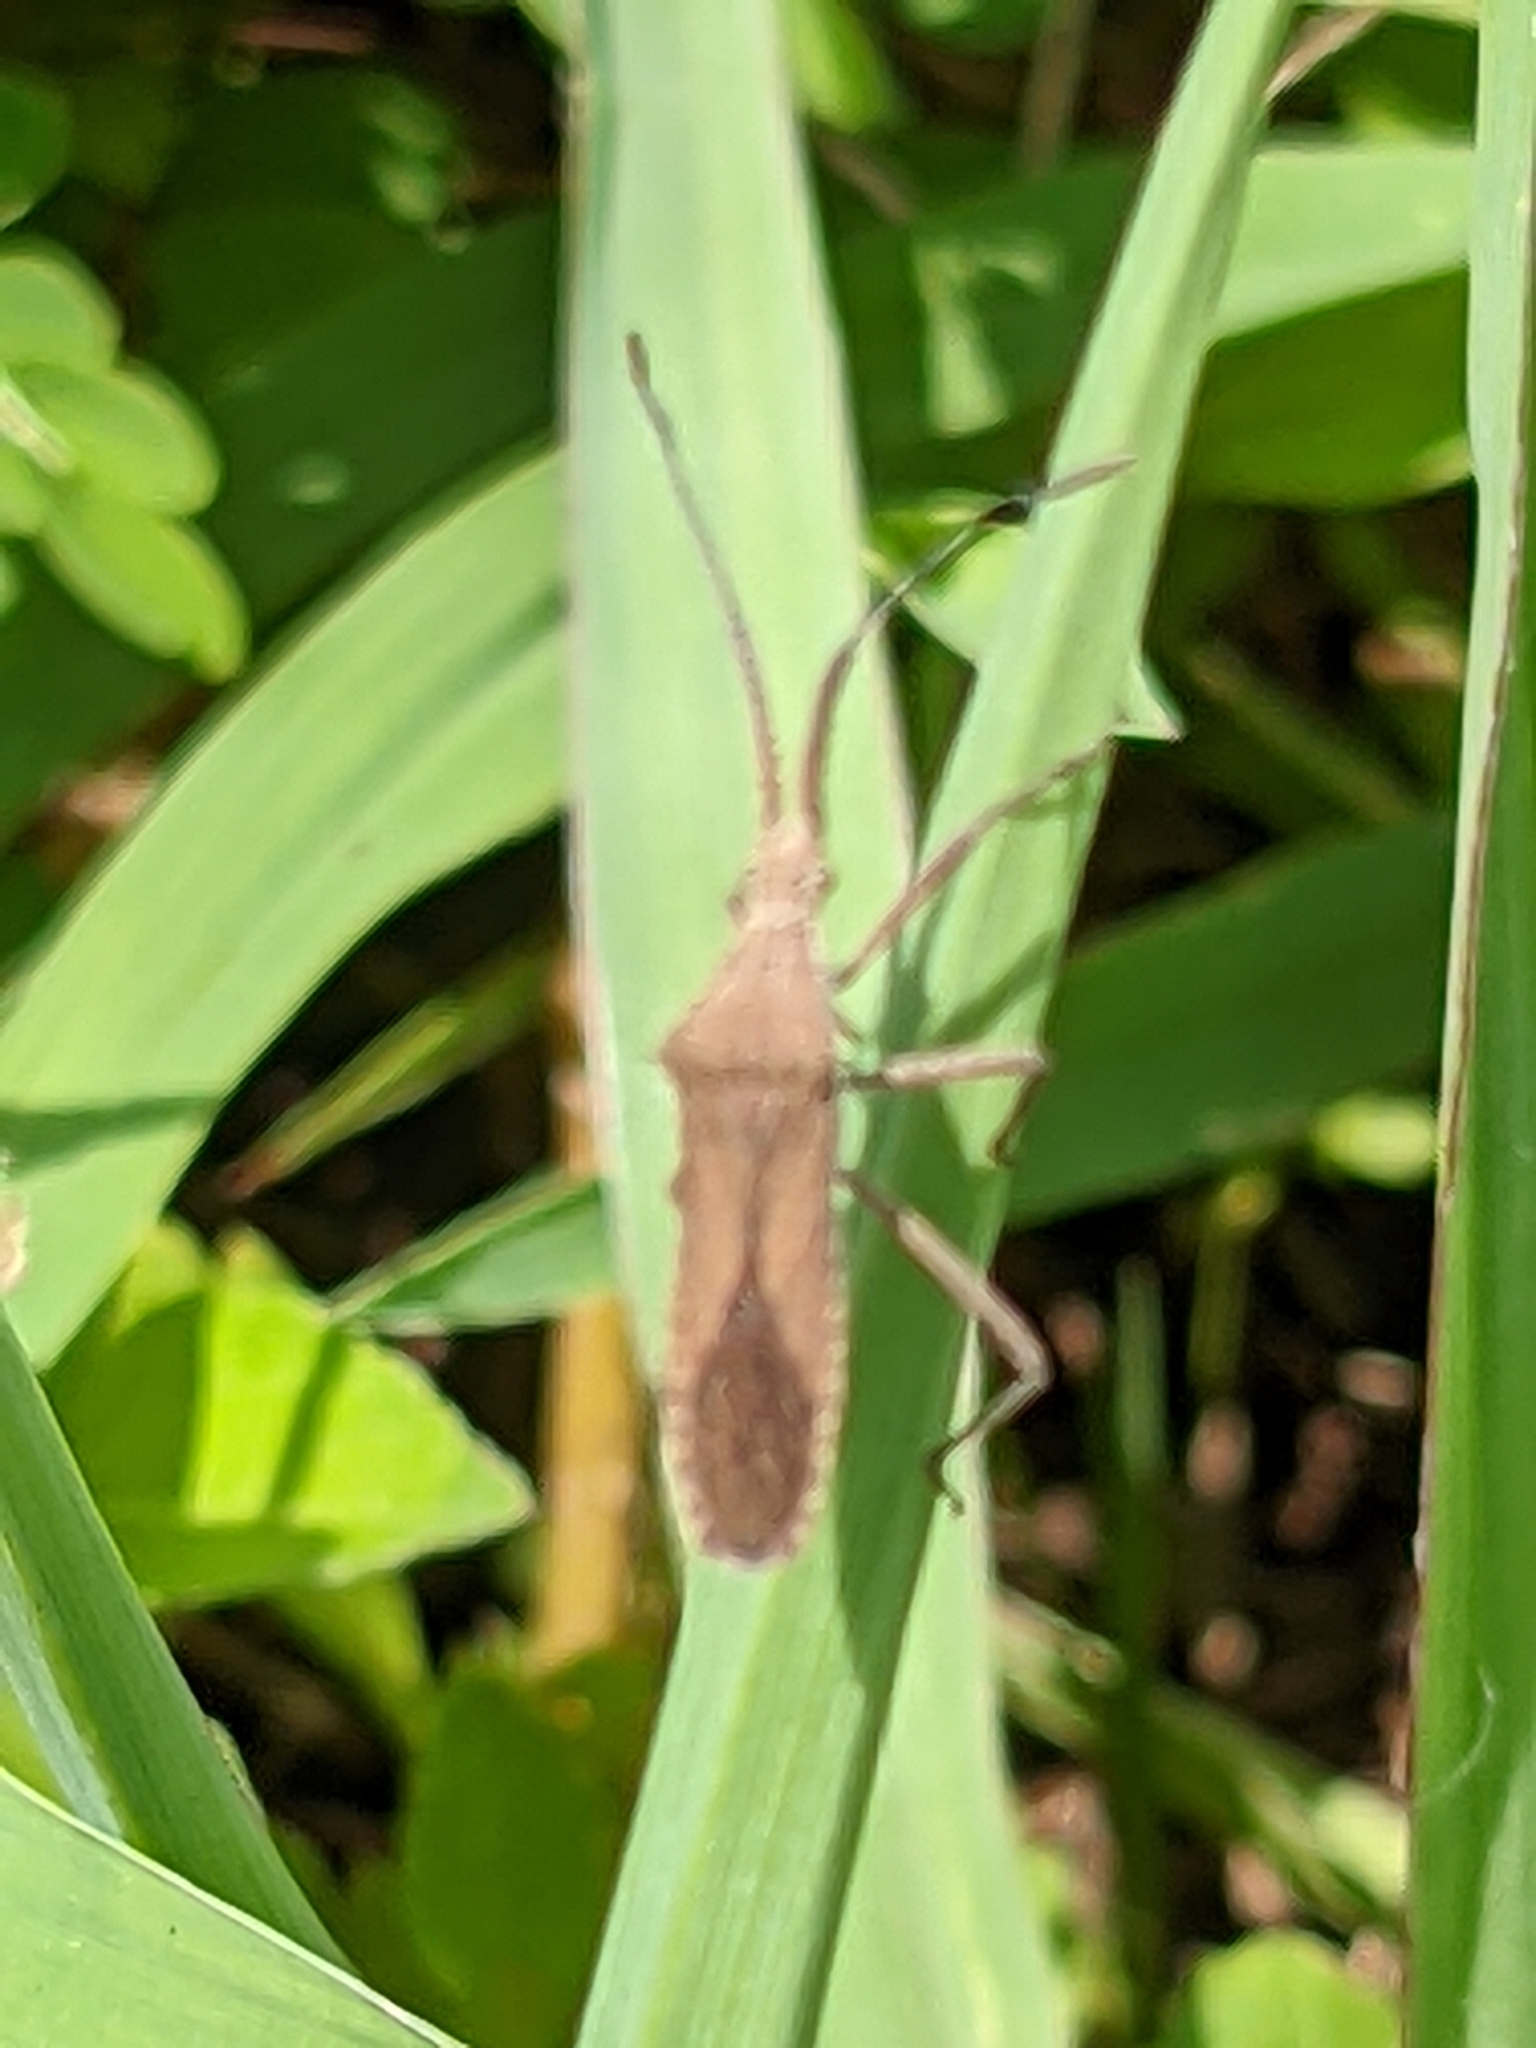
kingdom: Animalia
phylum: Arthropoda
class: Insecta
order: Hemiptera
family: Coreidae
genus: Chariesterus
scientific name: Chariesterus antennator
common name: Flat horned coreid
